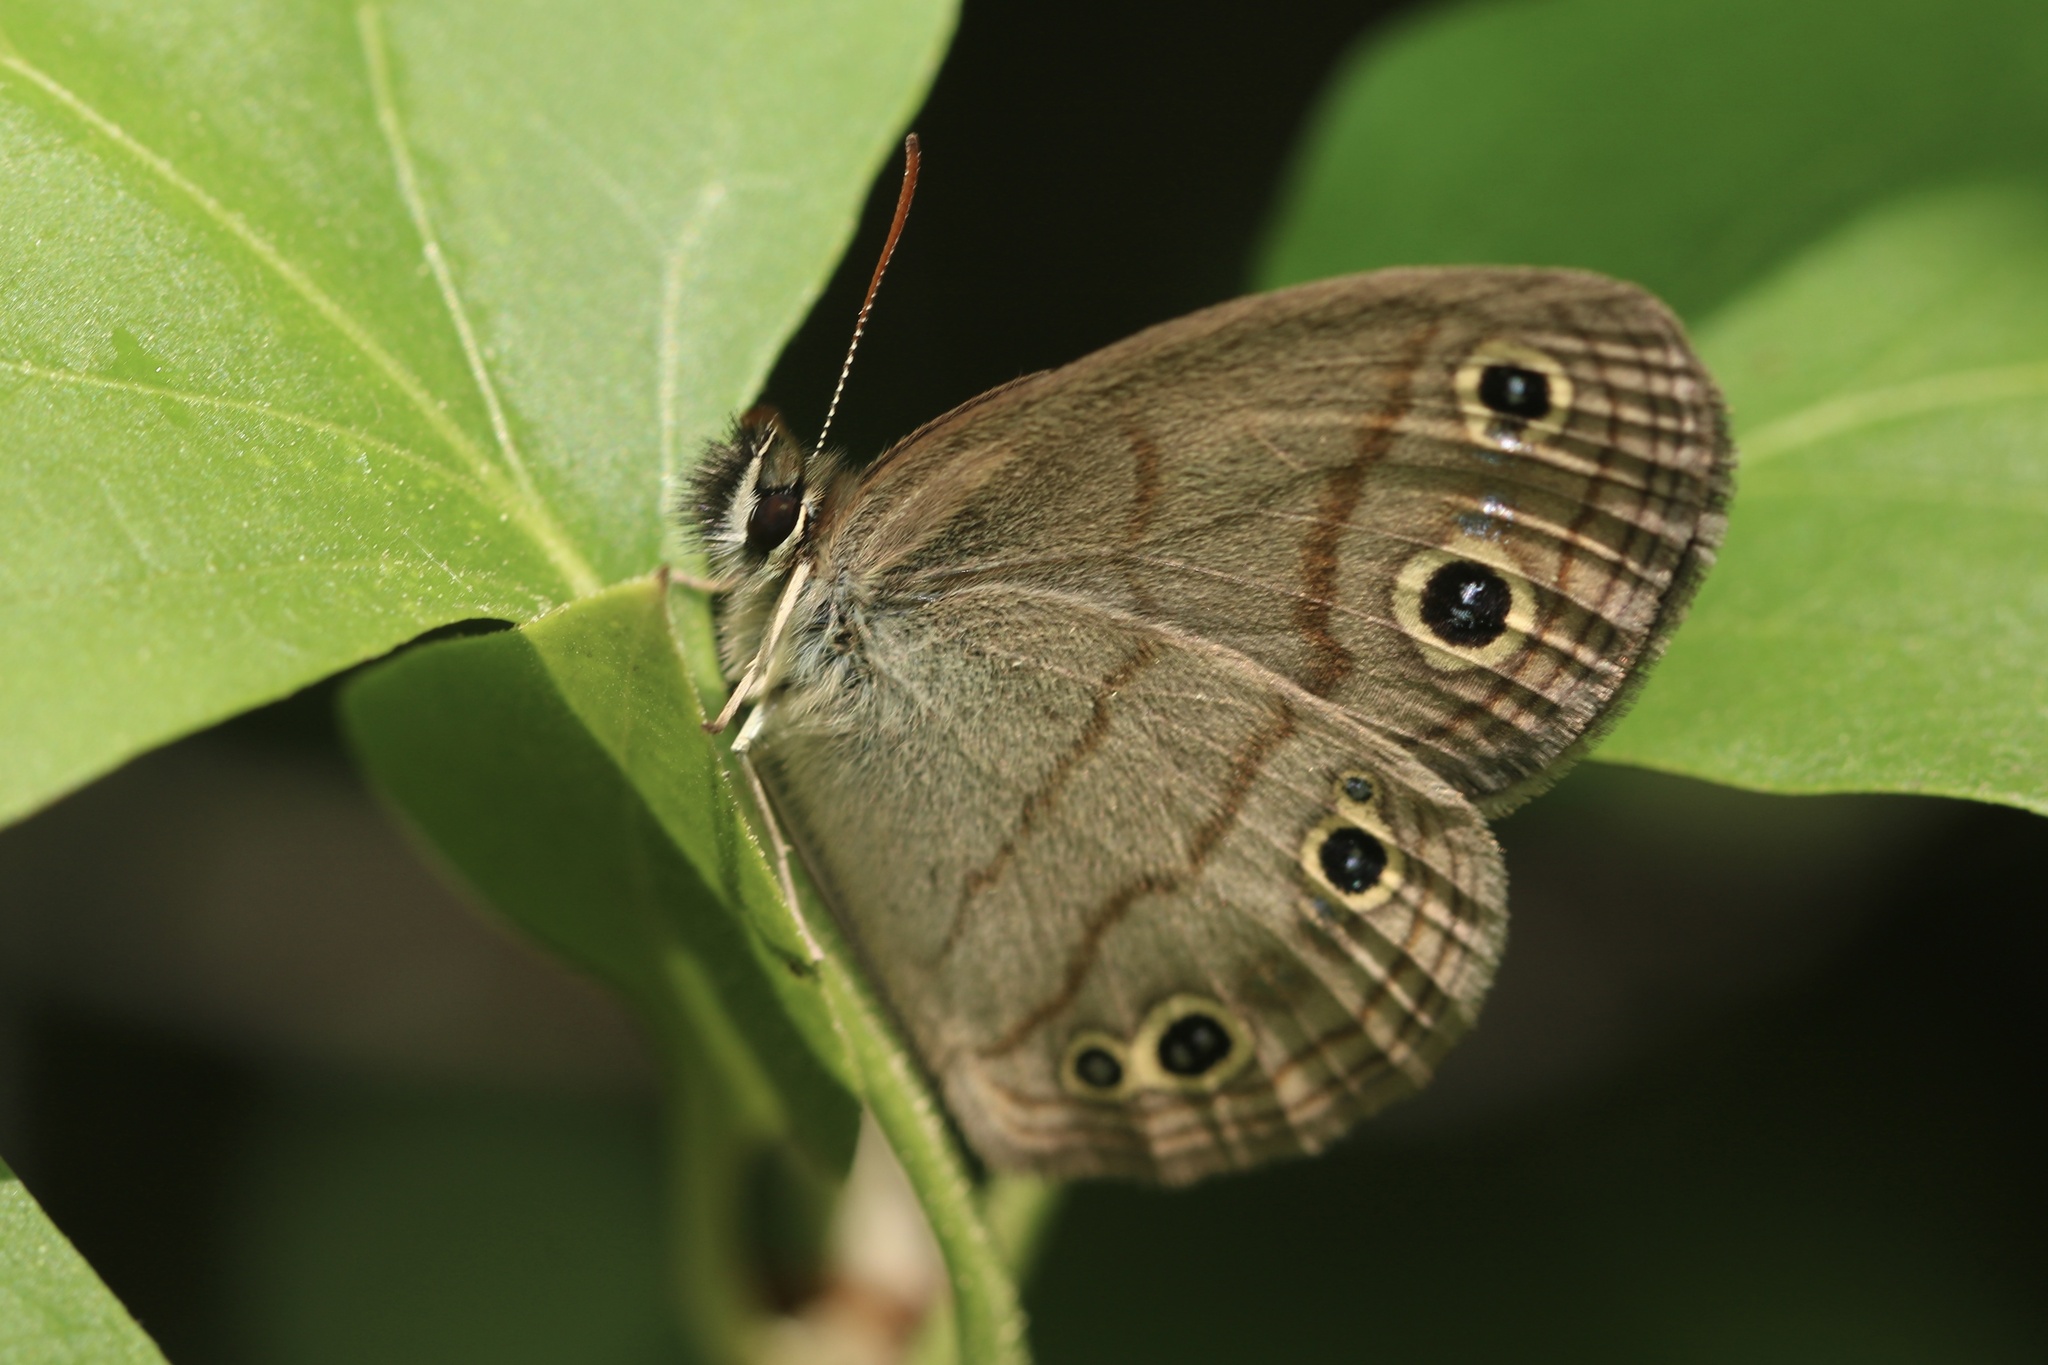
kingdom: Animalia
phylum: Arthropoda
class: Insecta
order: Lepidoptera
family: Nymphalidae
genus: Euptychia
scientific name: Euptychia cymela
